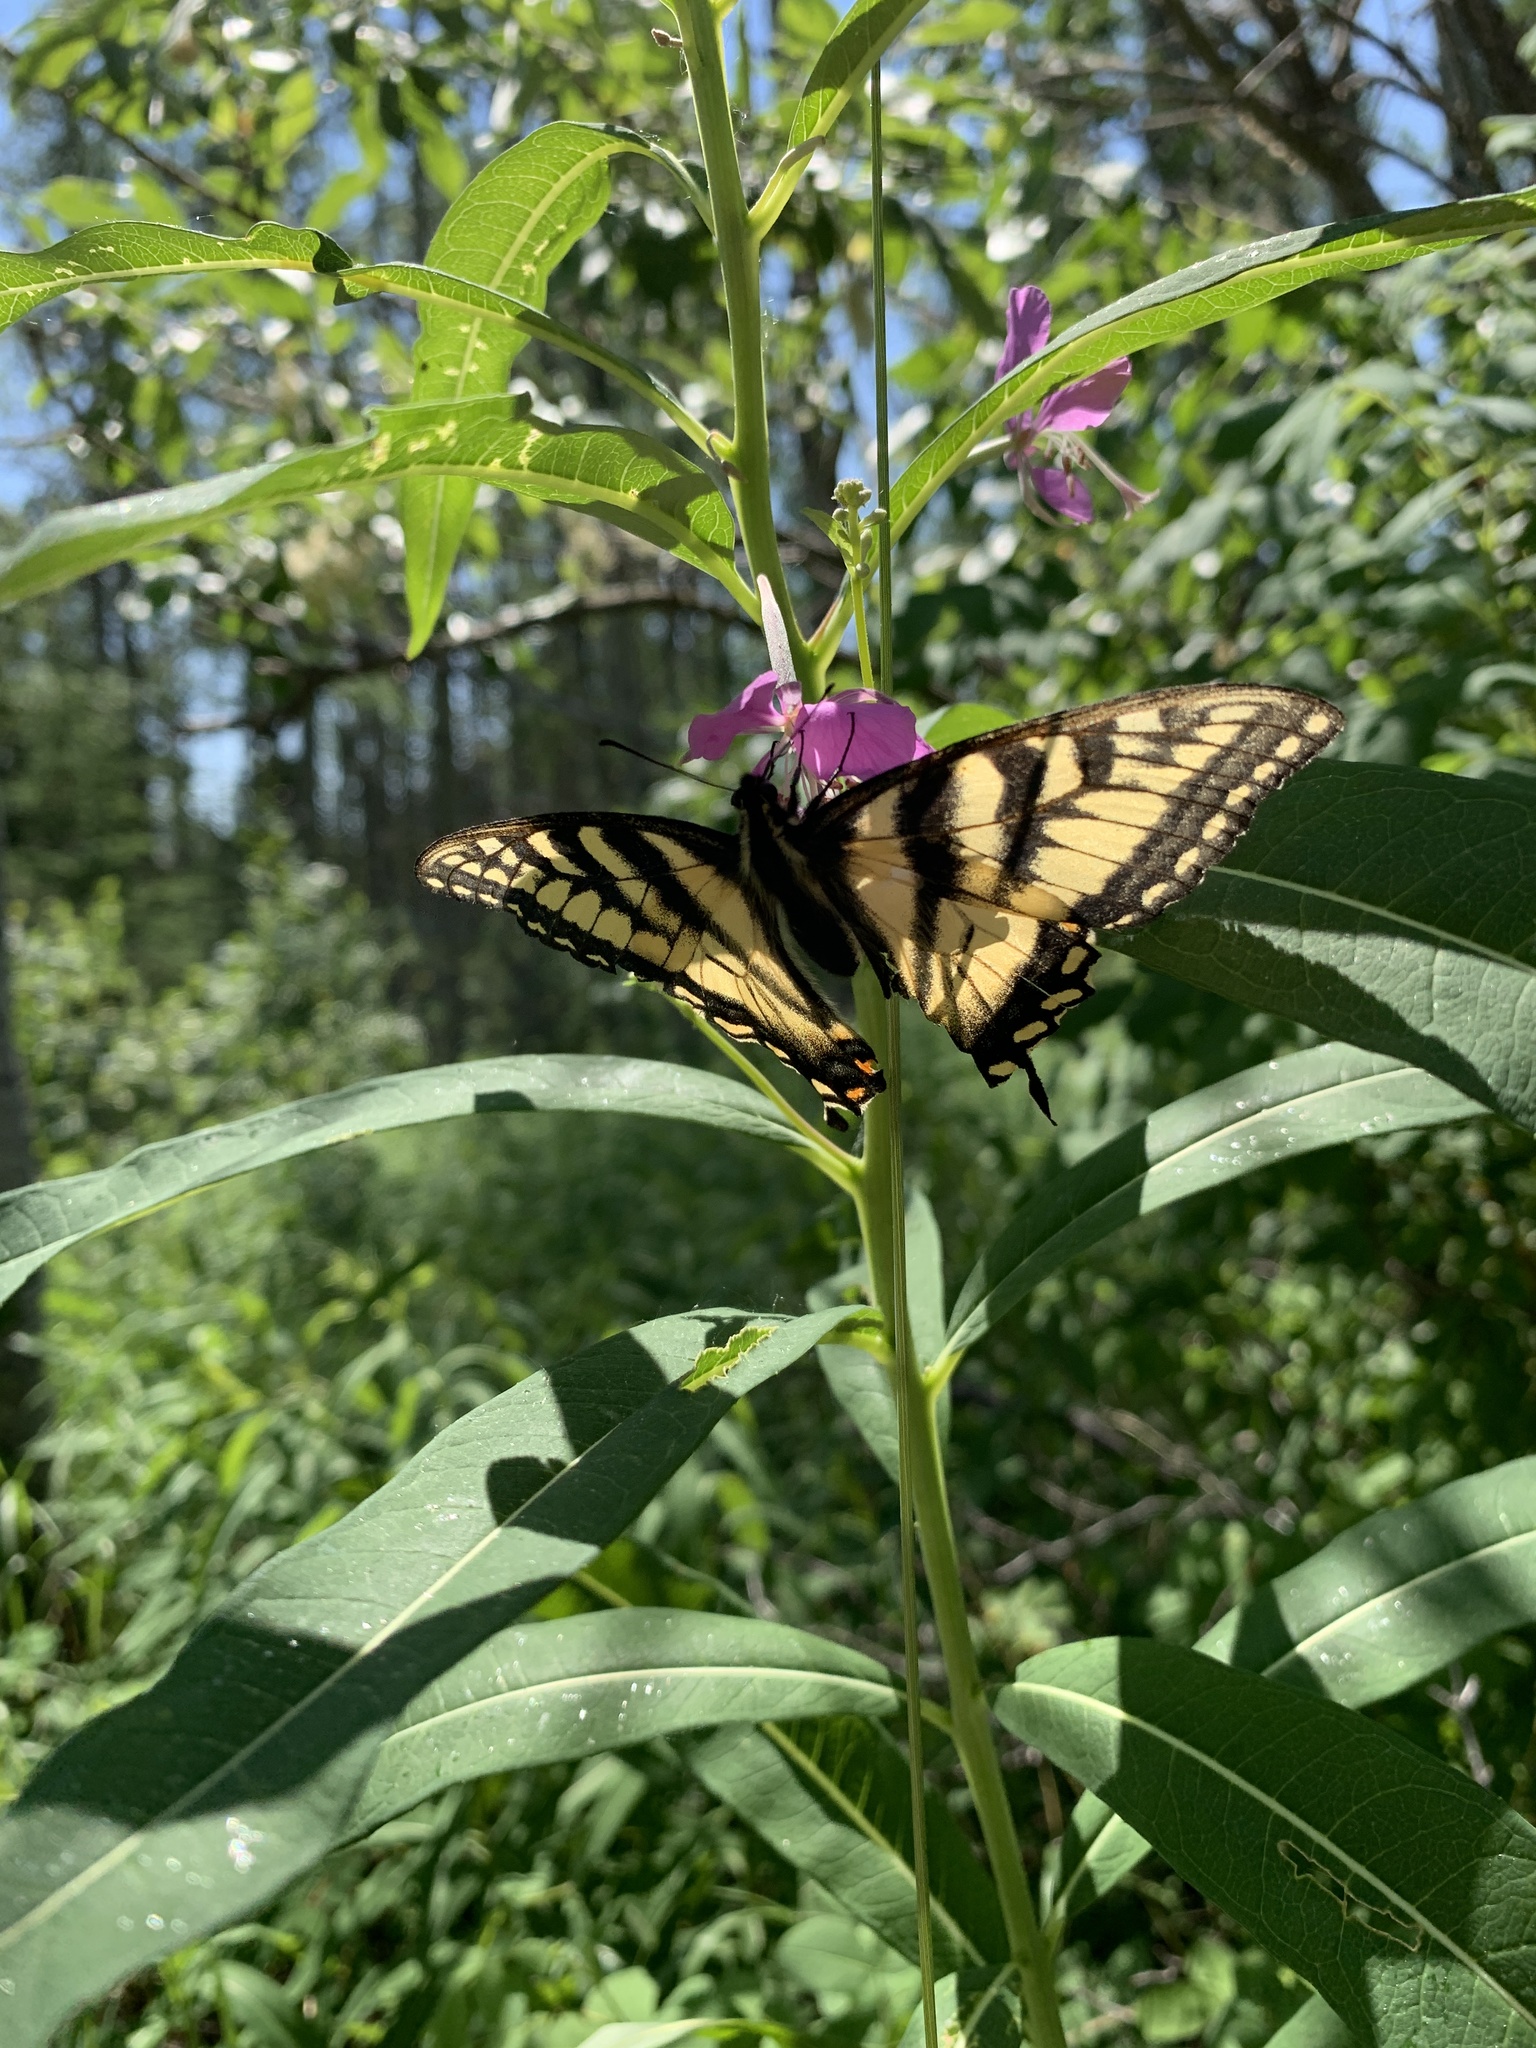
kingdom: Animalia
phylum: Arthropoda
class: Insecta
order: Lepidoptera
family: Papilionidae
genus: Papilio
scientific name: Papilio canadensis
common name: Canadian tiger swallowtail
